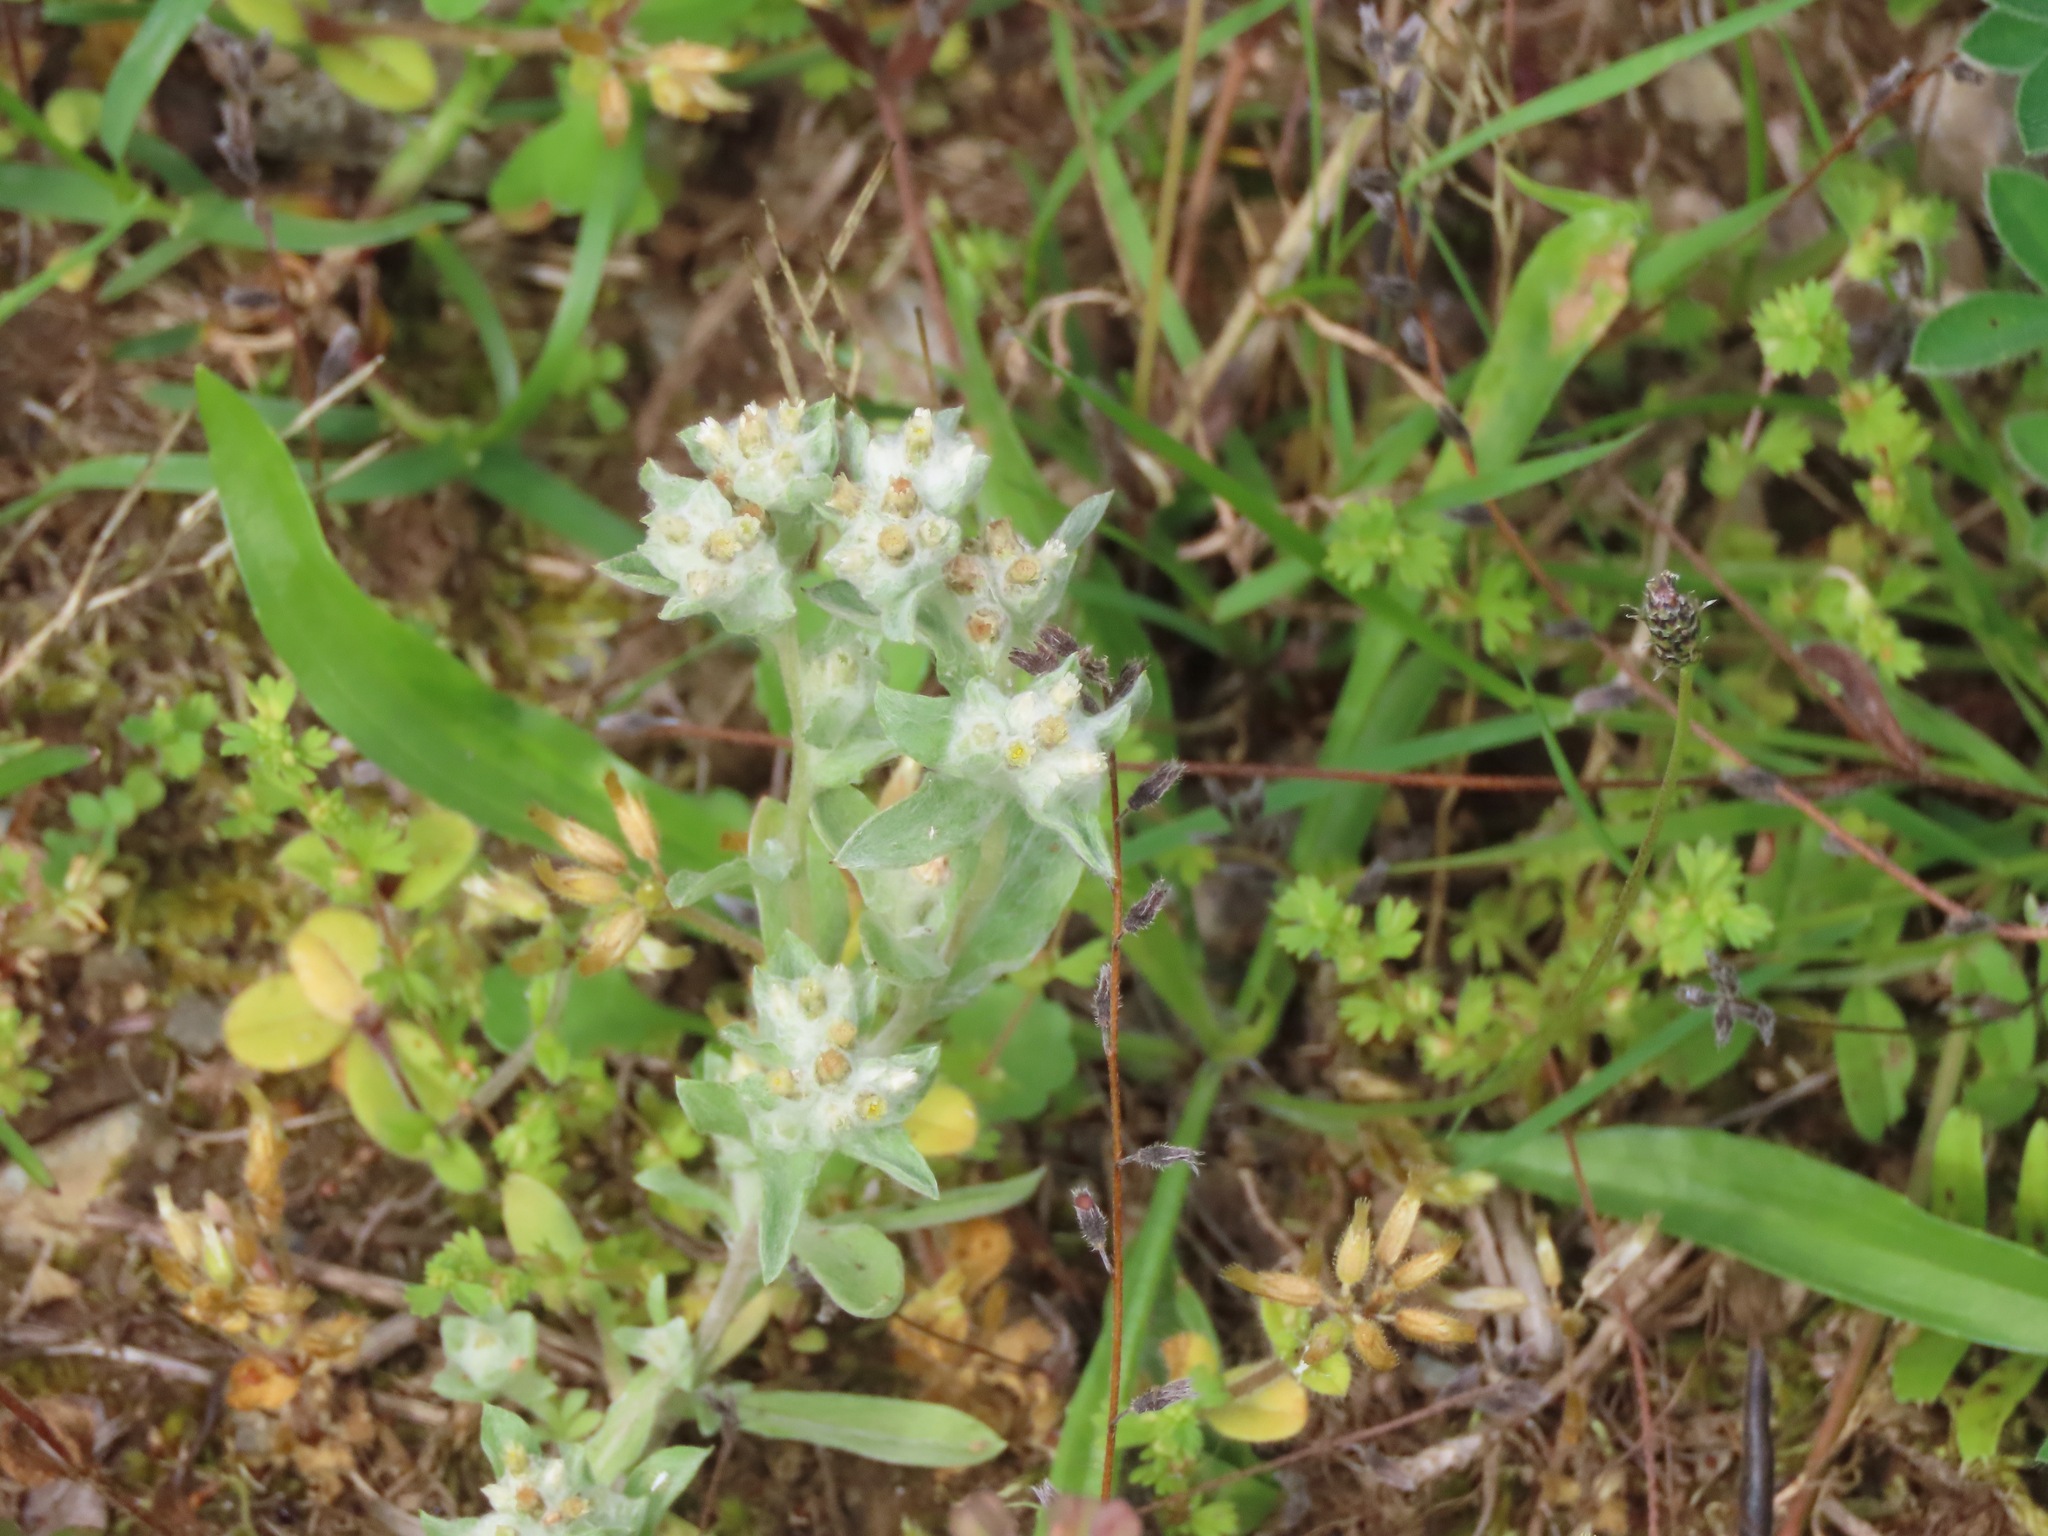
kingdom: Plantae
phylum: Tracheophyta
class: Magnoliopsida
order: Asterales
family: Asteraceae
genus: Gnaphalium
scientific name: Gnaphalium palustre
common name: Western marsh cudweed
